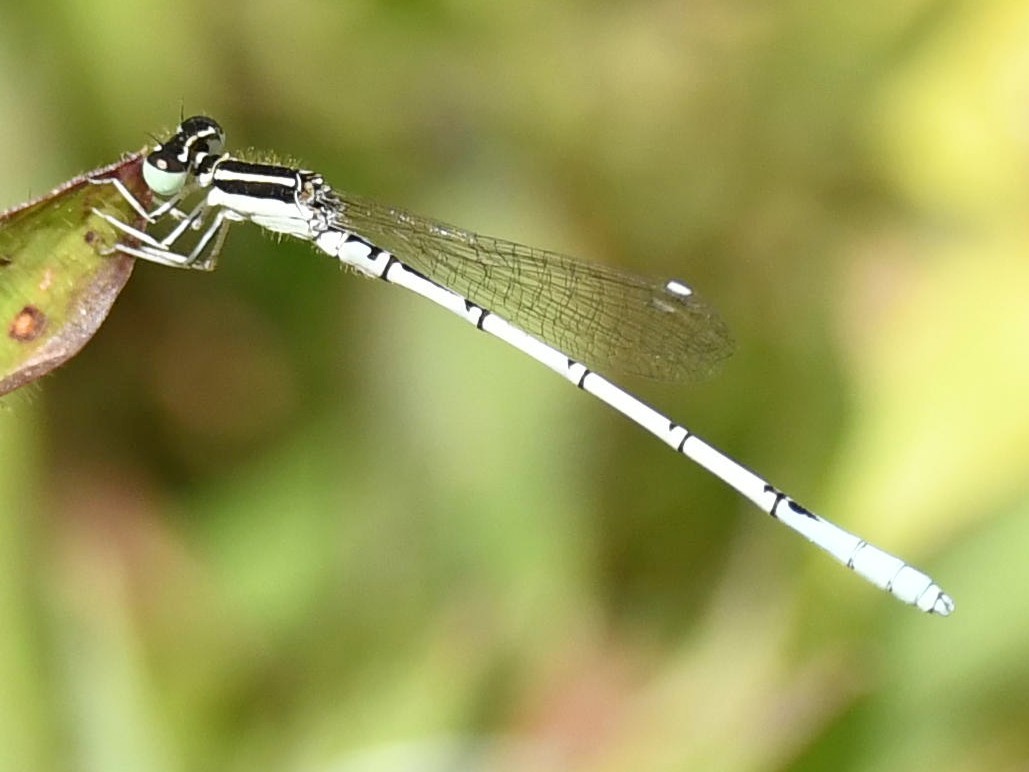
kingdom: Animalia
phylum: Arthropoda
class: Insecta
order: Odonata
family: Coenagrionidae
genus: Agriocnemis
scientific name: Agriocnemis pieris
